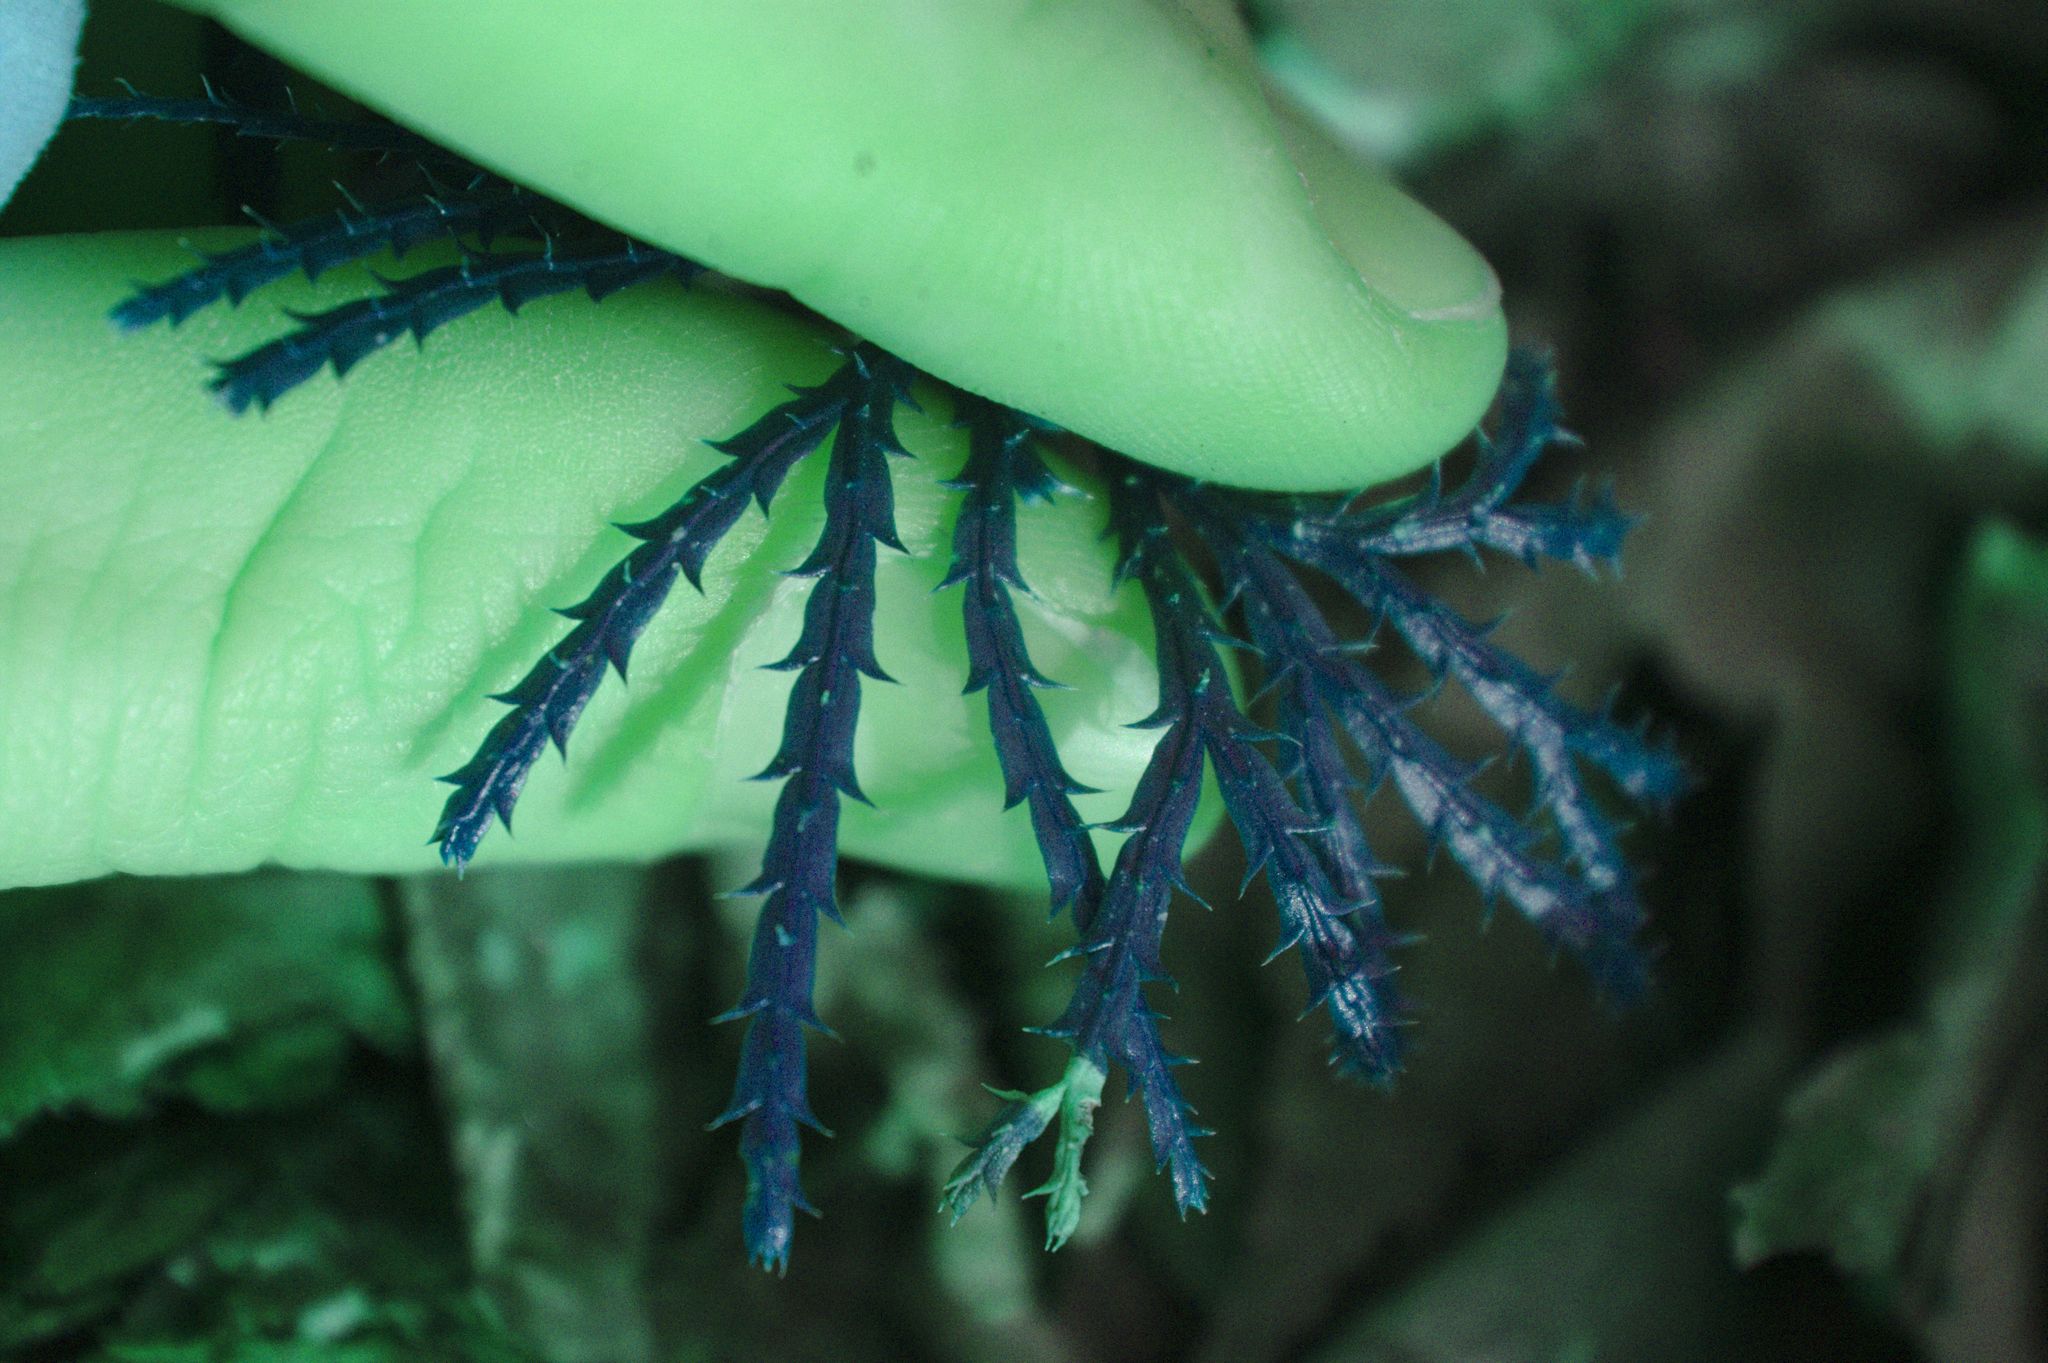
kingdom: Plantae
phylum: Tracheophyta
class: Lycopodiopsida
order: Lycopodiales
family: Lycopodiaceae
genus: Diphasiastrum
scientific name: Diphasiastrum digitatum
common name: Southern running-pine
